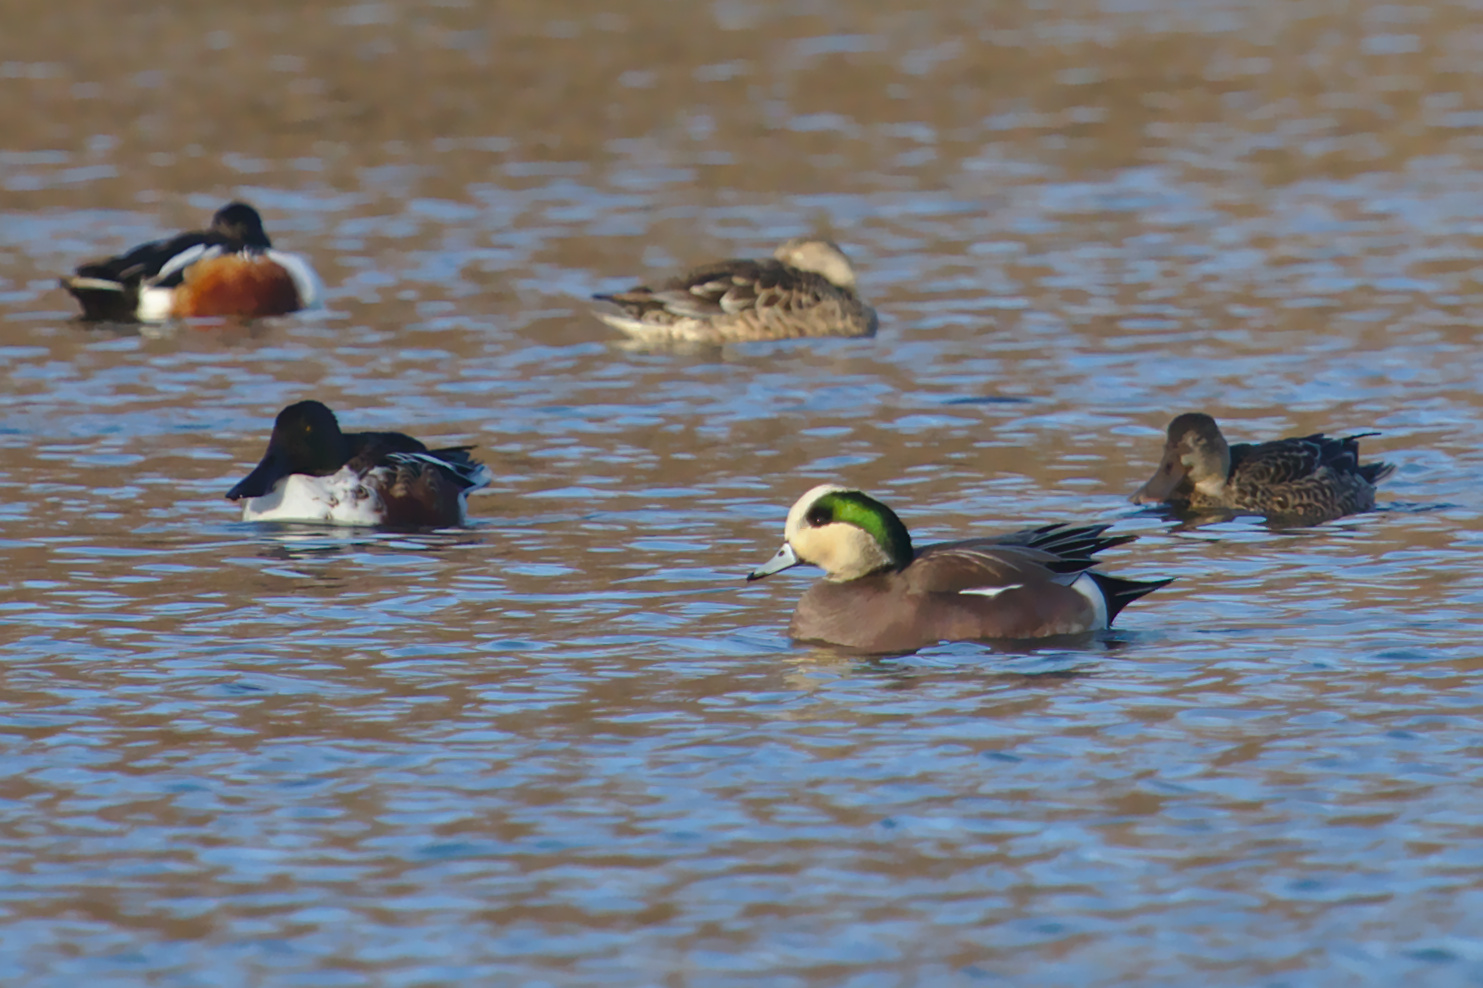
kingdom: Animalia
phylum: Chordata
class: Aves
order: Anseriformes
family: Anatidae
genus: Mareca
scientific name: Mareca americana
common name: American wigeon
